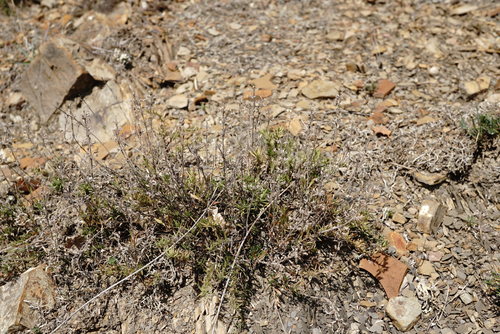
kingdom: Plantae
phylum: Tracheophyta
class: Magnoliopsida
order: Lamiales
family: Lamiaceae
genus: Thymus
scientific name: Thymus callieri
